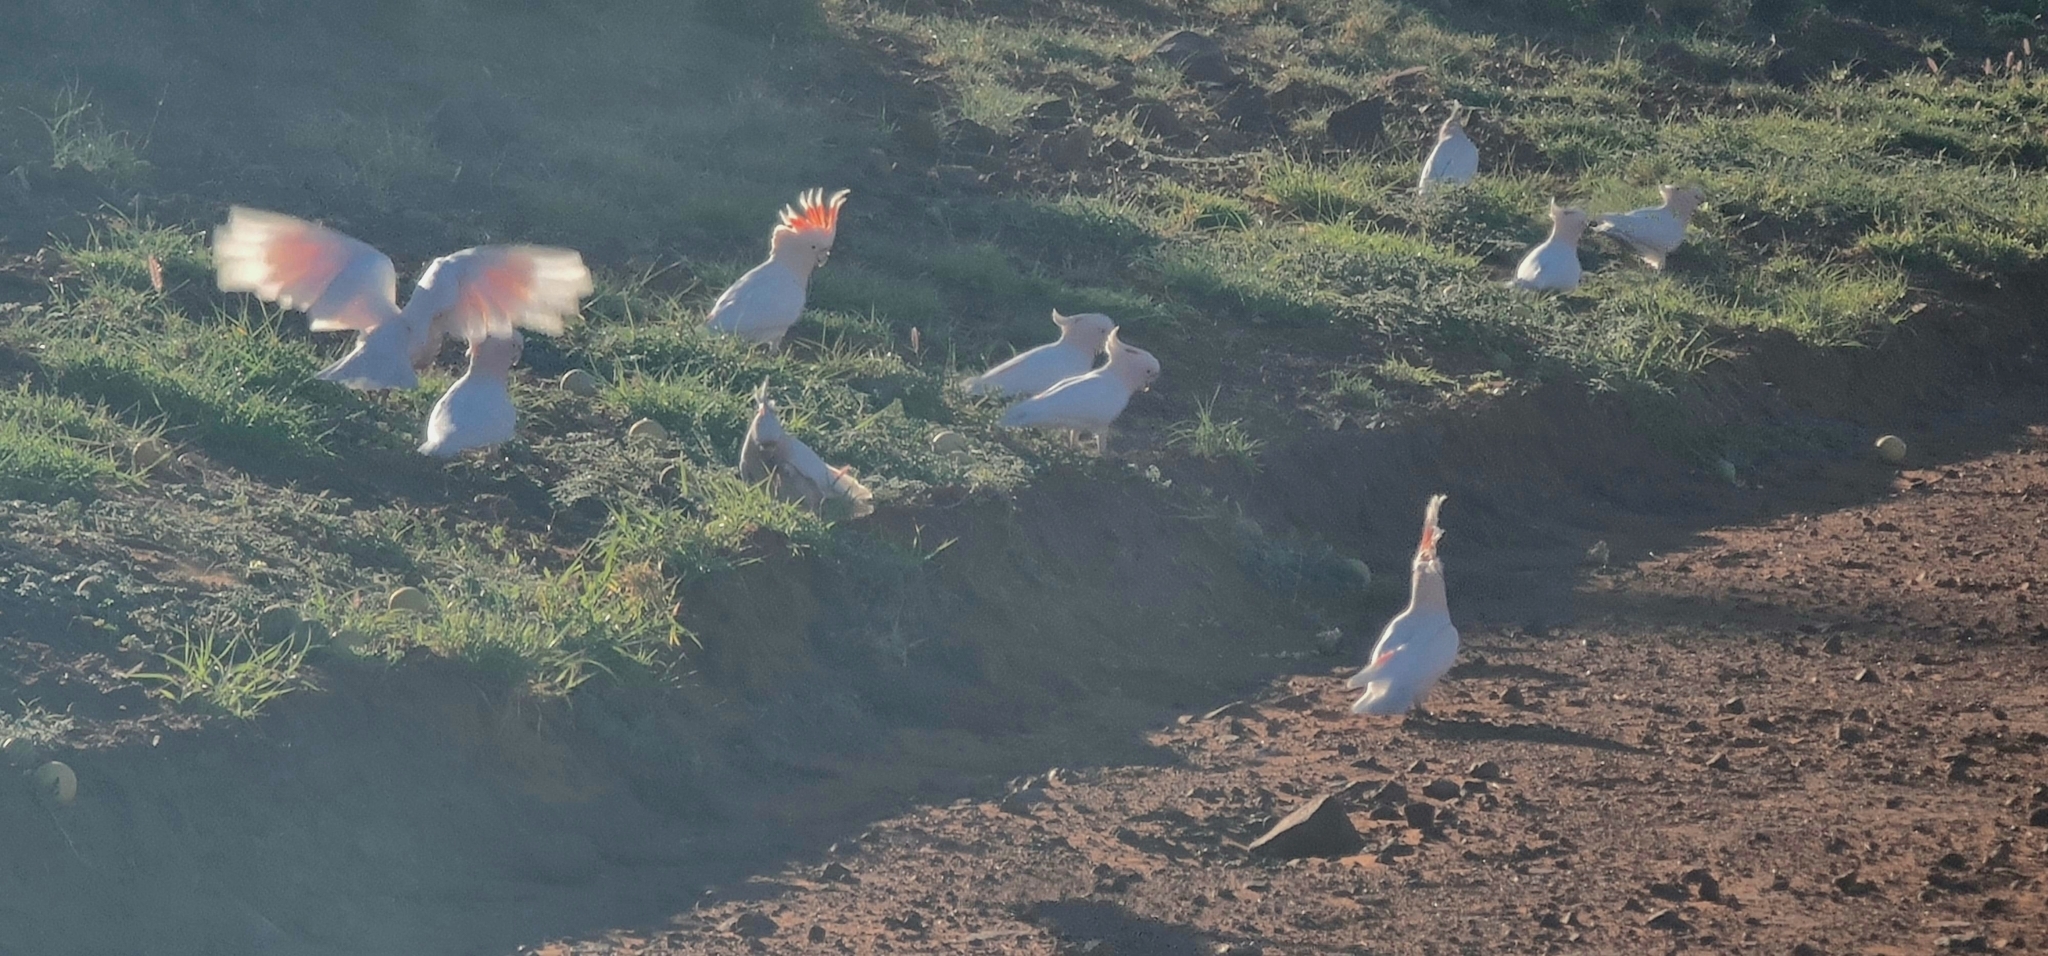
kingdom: Animalia
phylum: Chordata
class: Aves
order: Psittaciformes
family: Psittacidae
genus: Cacatua
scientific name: Cacatua leadbeateri
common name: Major mitchell's cockatoo
